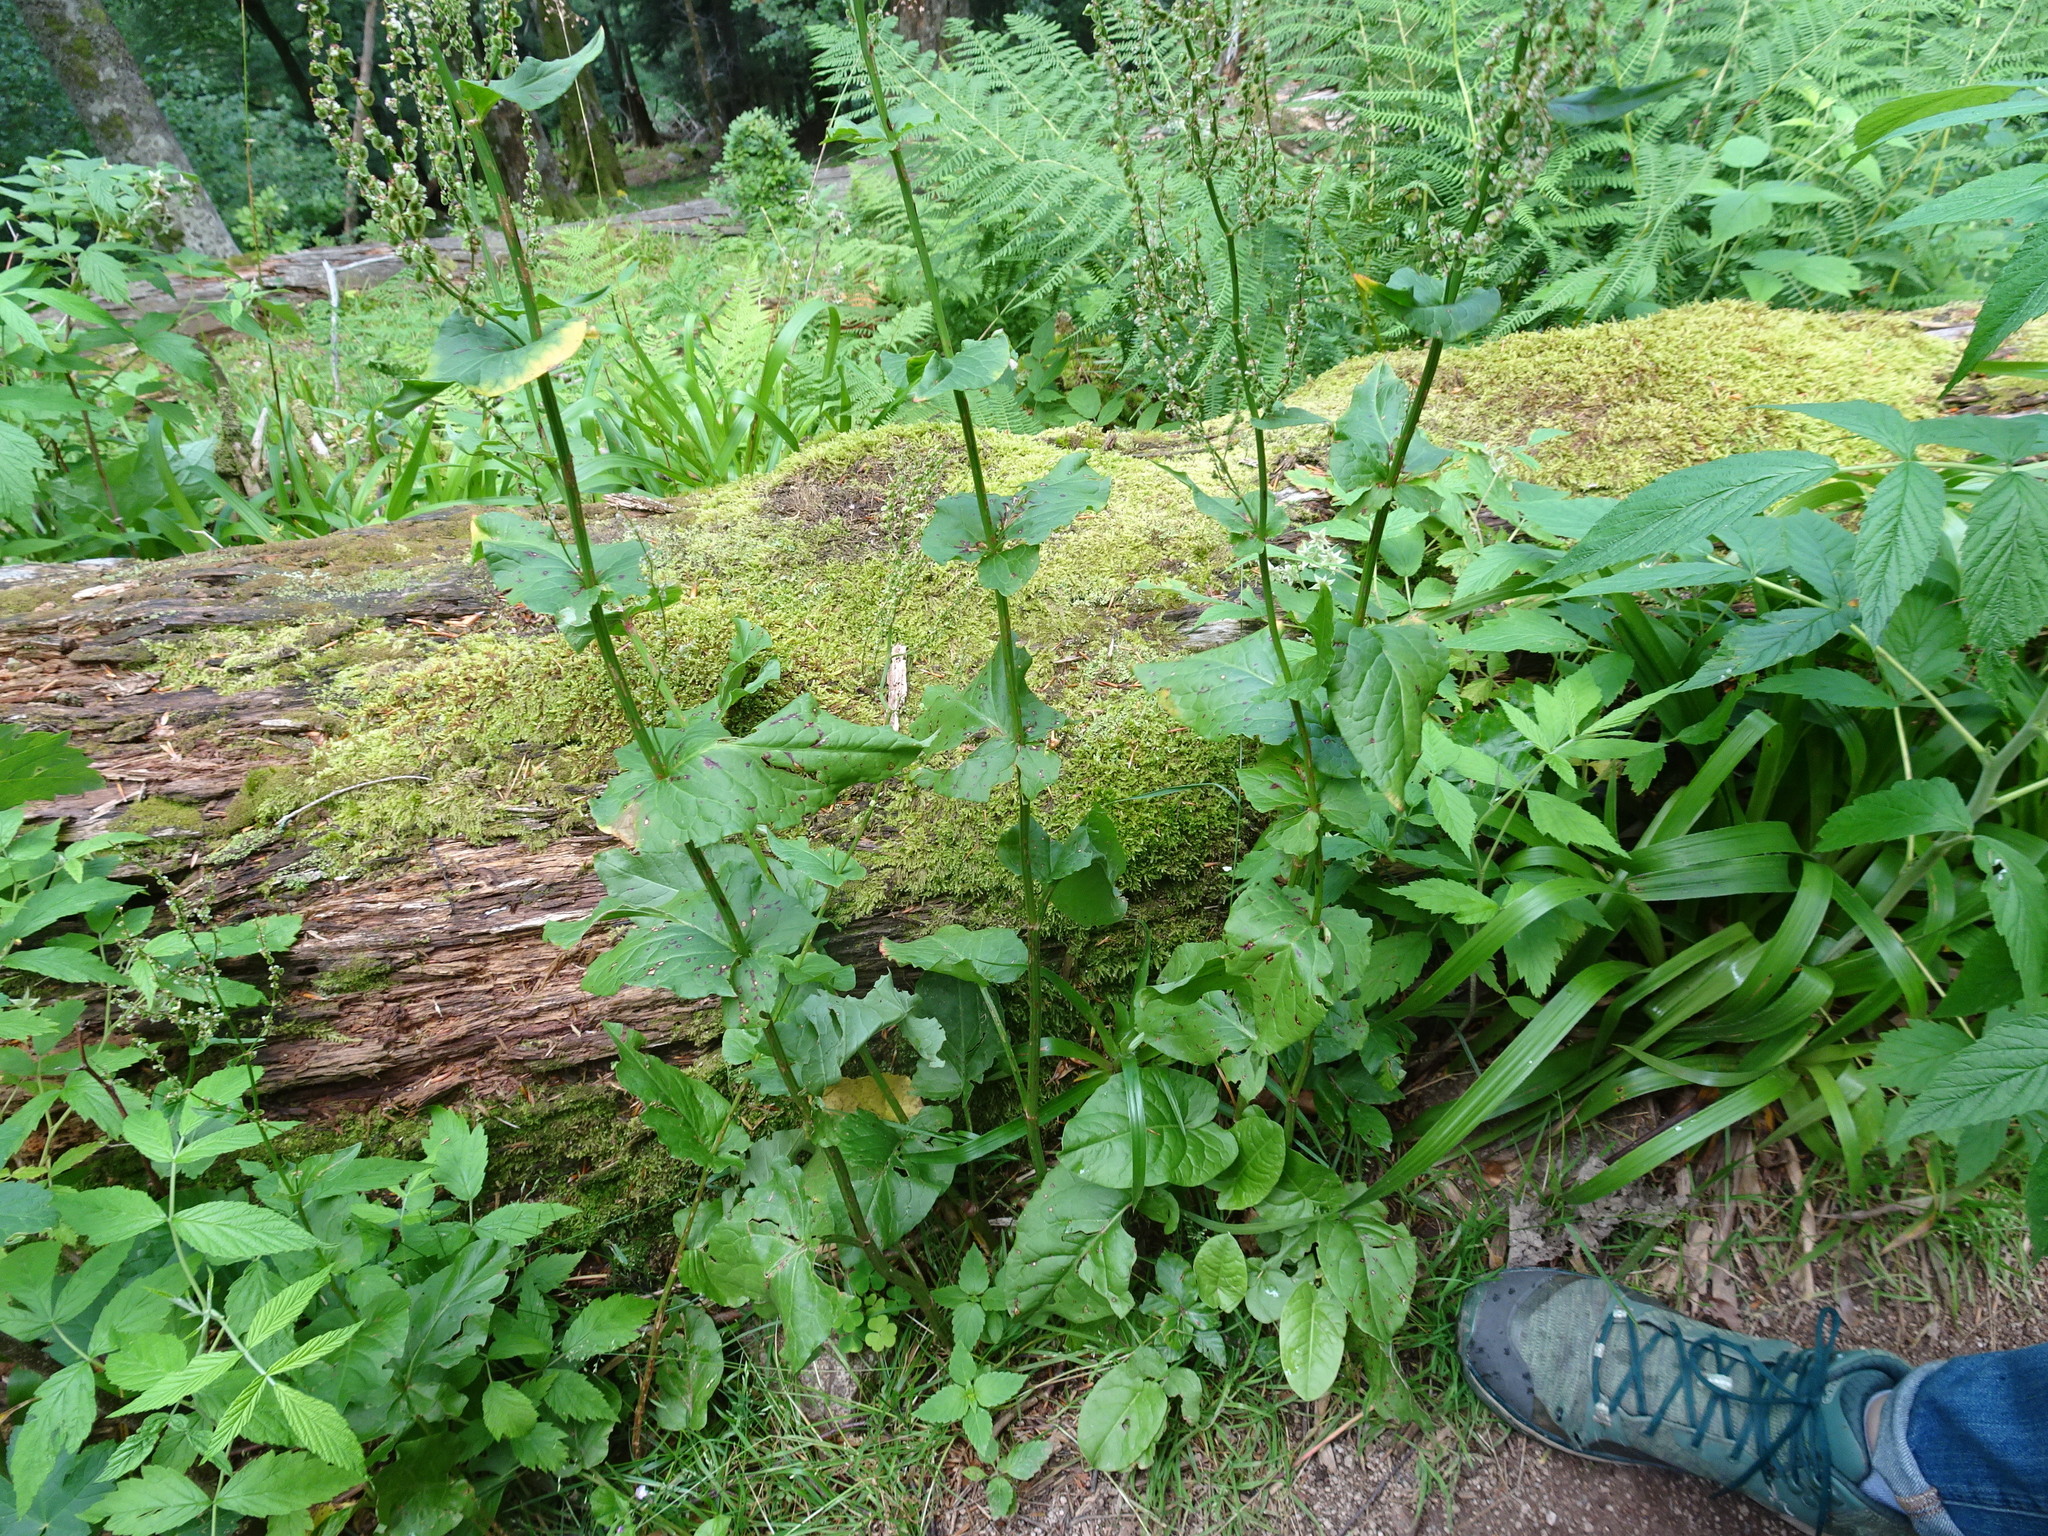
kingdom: Plantae
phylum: Tracheophyta
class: Magnoliopsida
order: Caryophyllales
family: Polygonaceae
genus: Rumex
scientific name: Rumex arifolius
